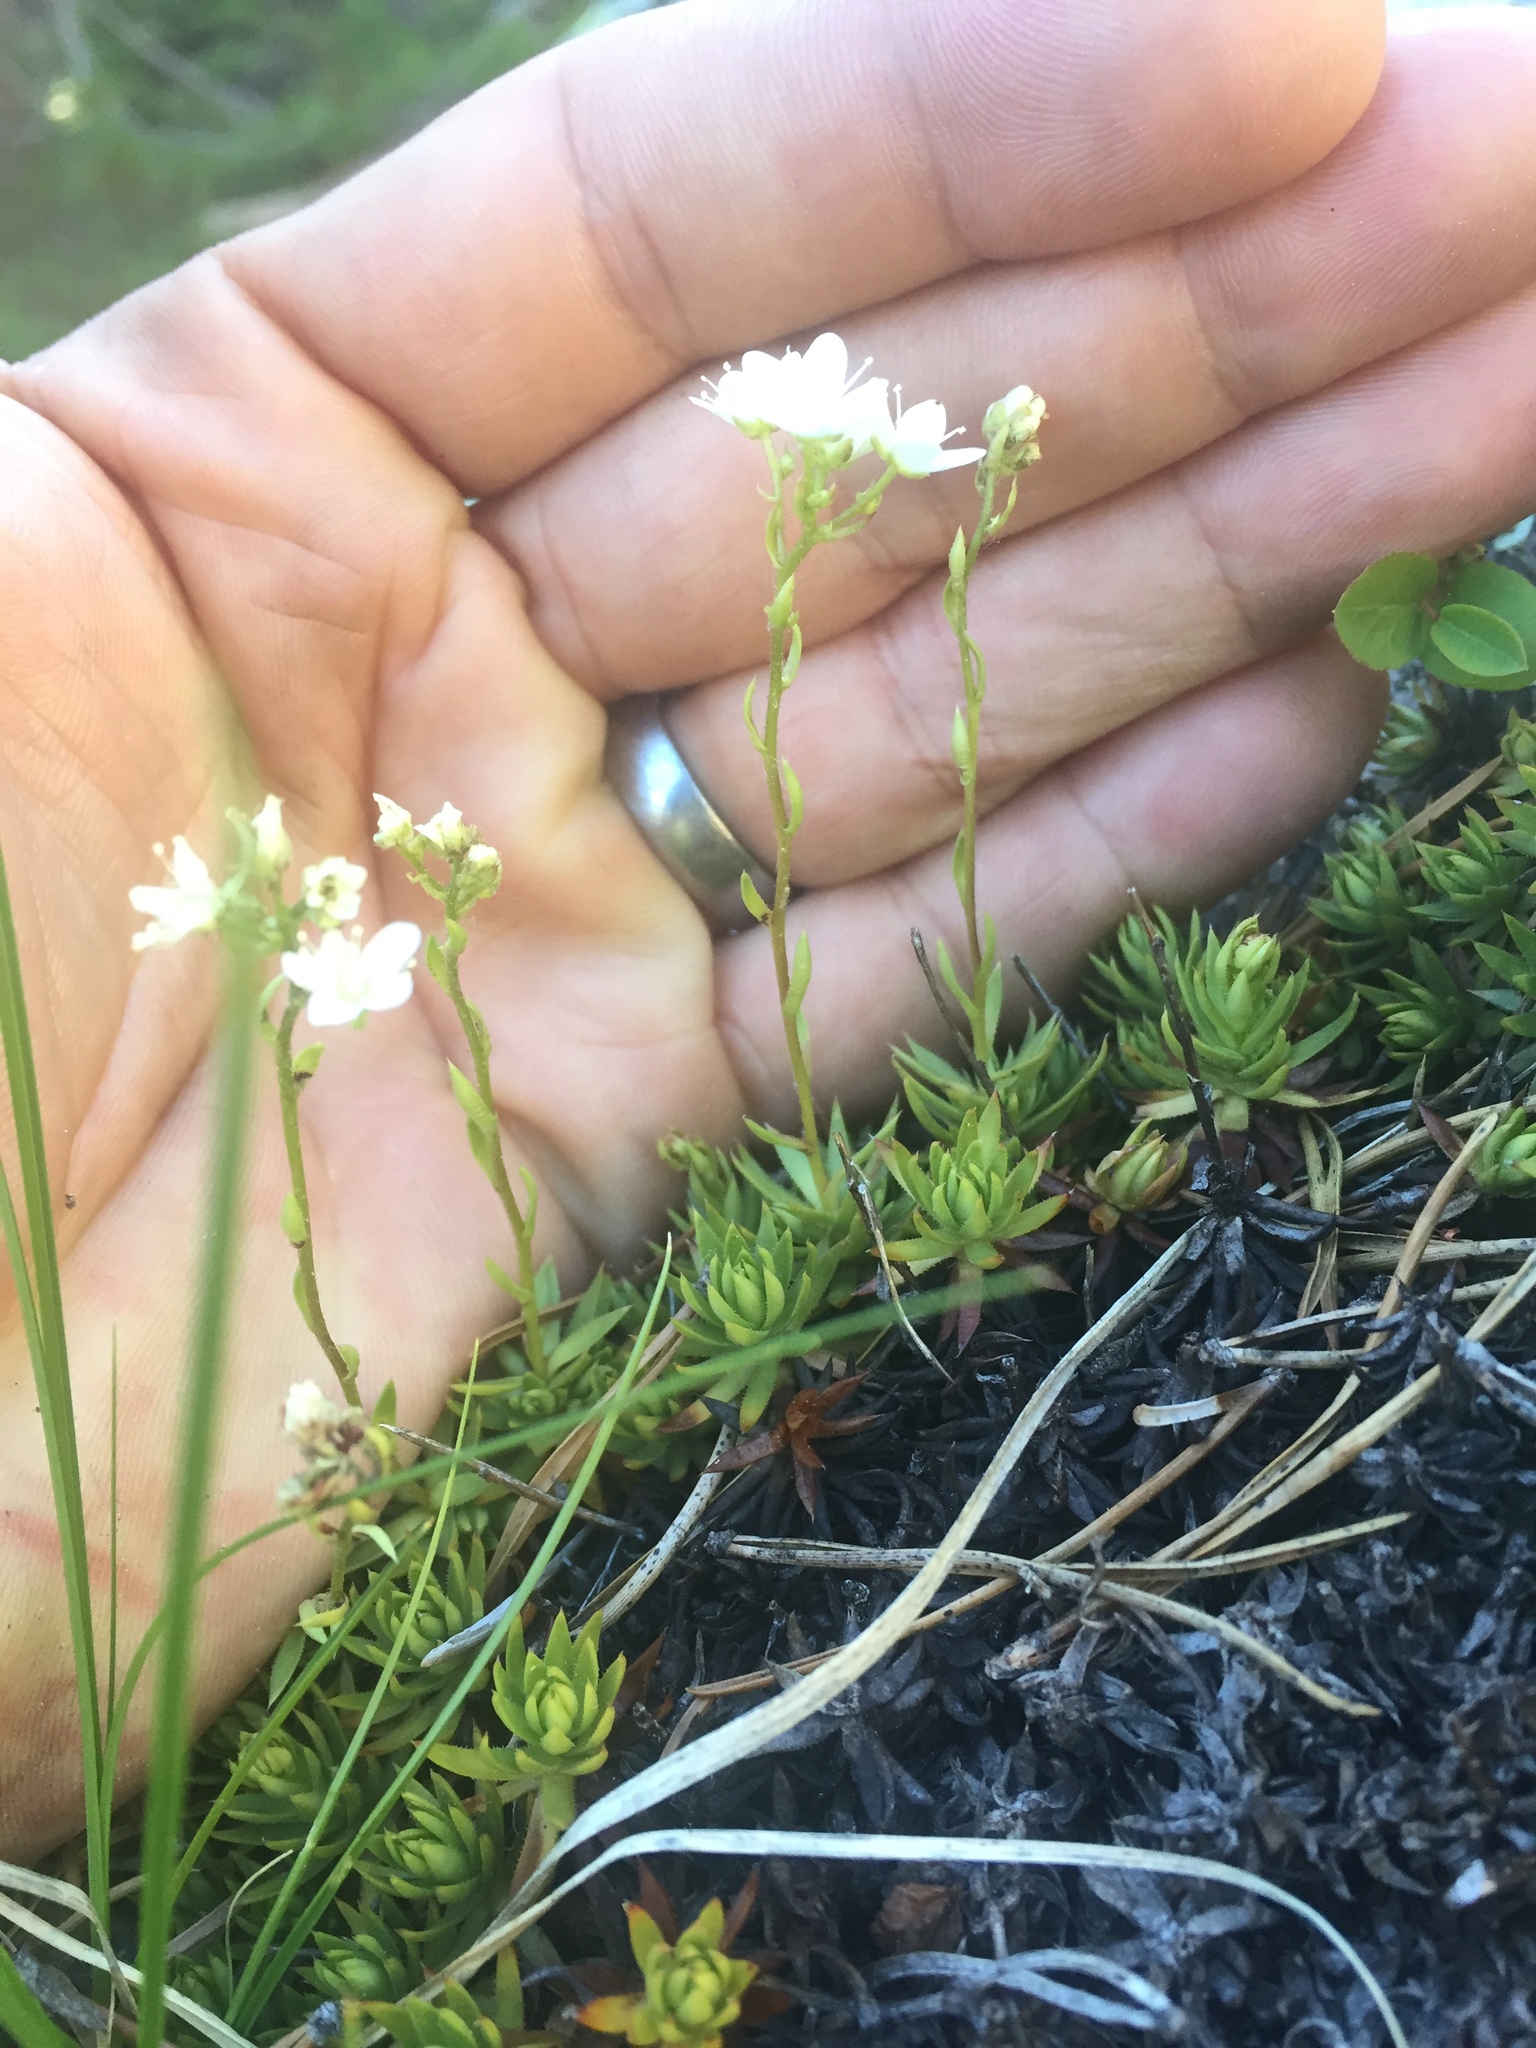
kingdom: Plantae
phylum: Tracheophyta
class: Magnoliopsida
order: Saxifragales
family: Saxifragaceae
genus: Saxifraga
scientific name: Saxifraga bronchialis
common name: Matted saxifrage
